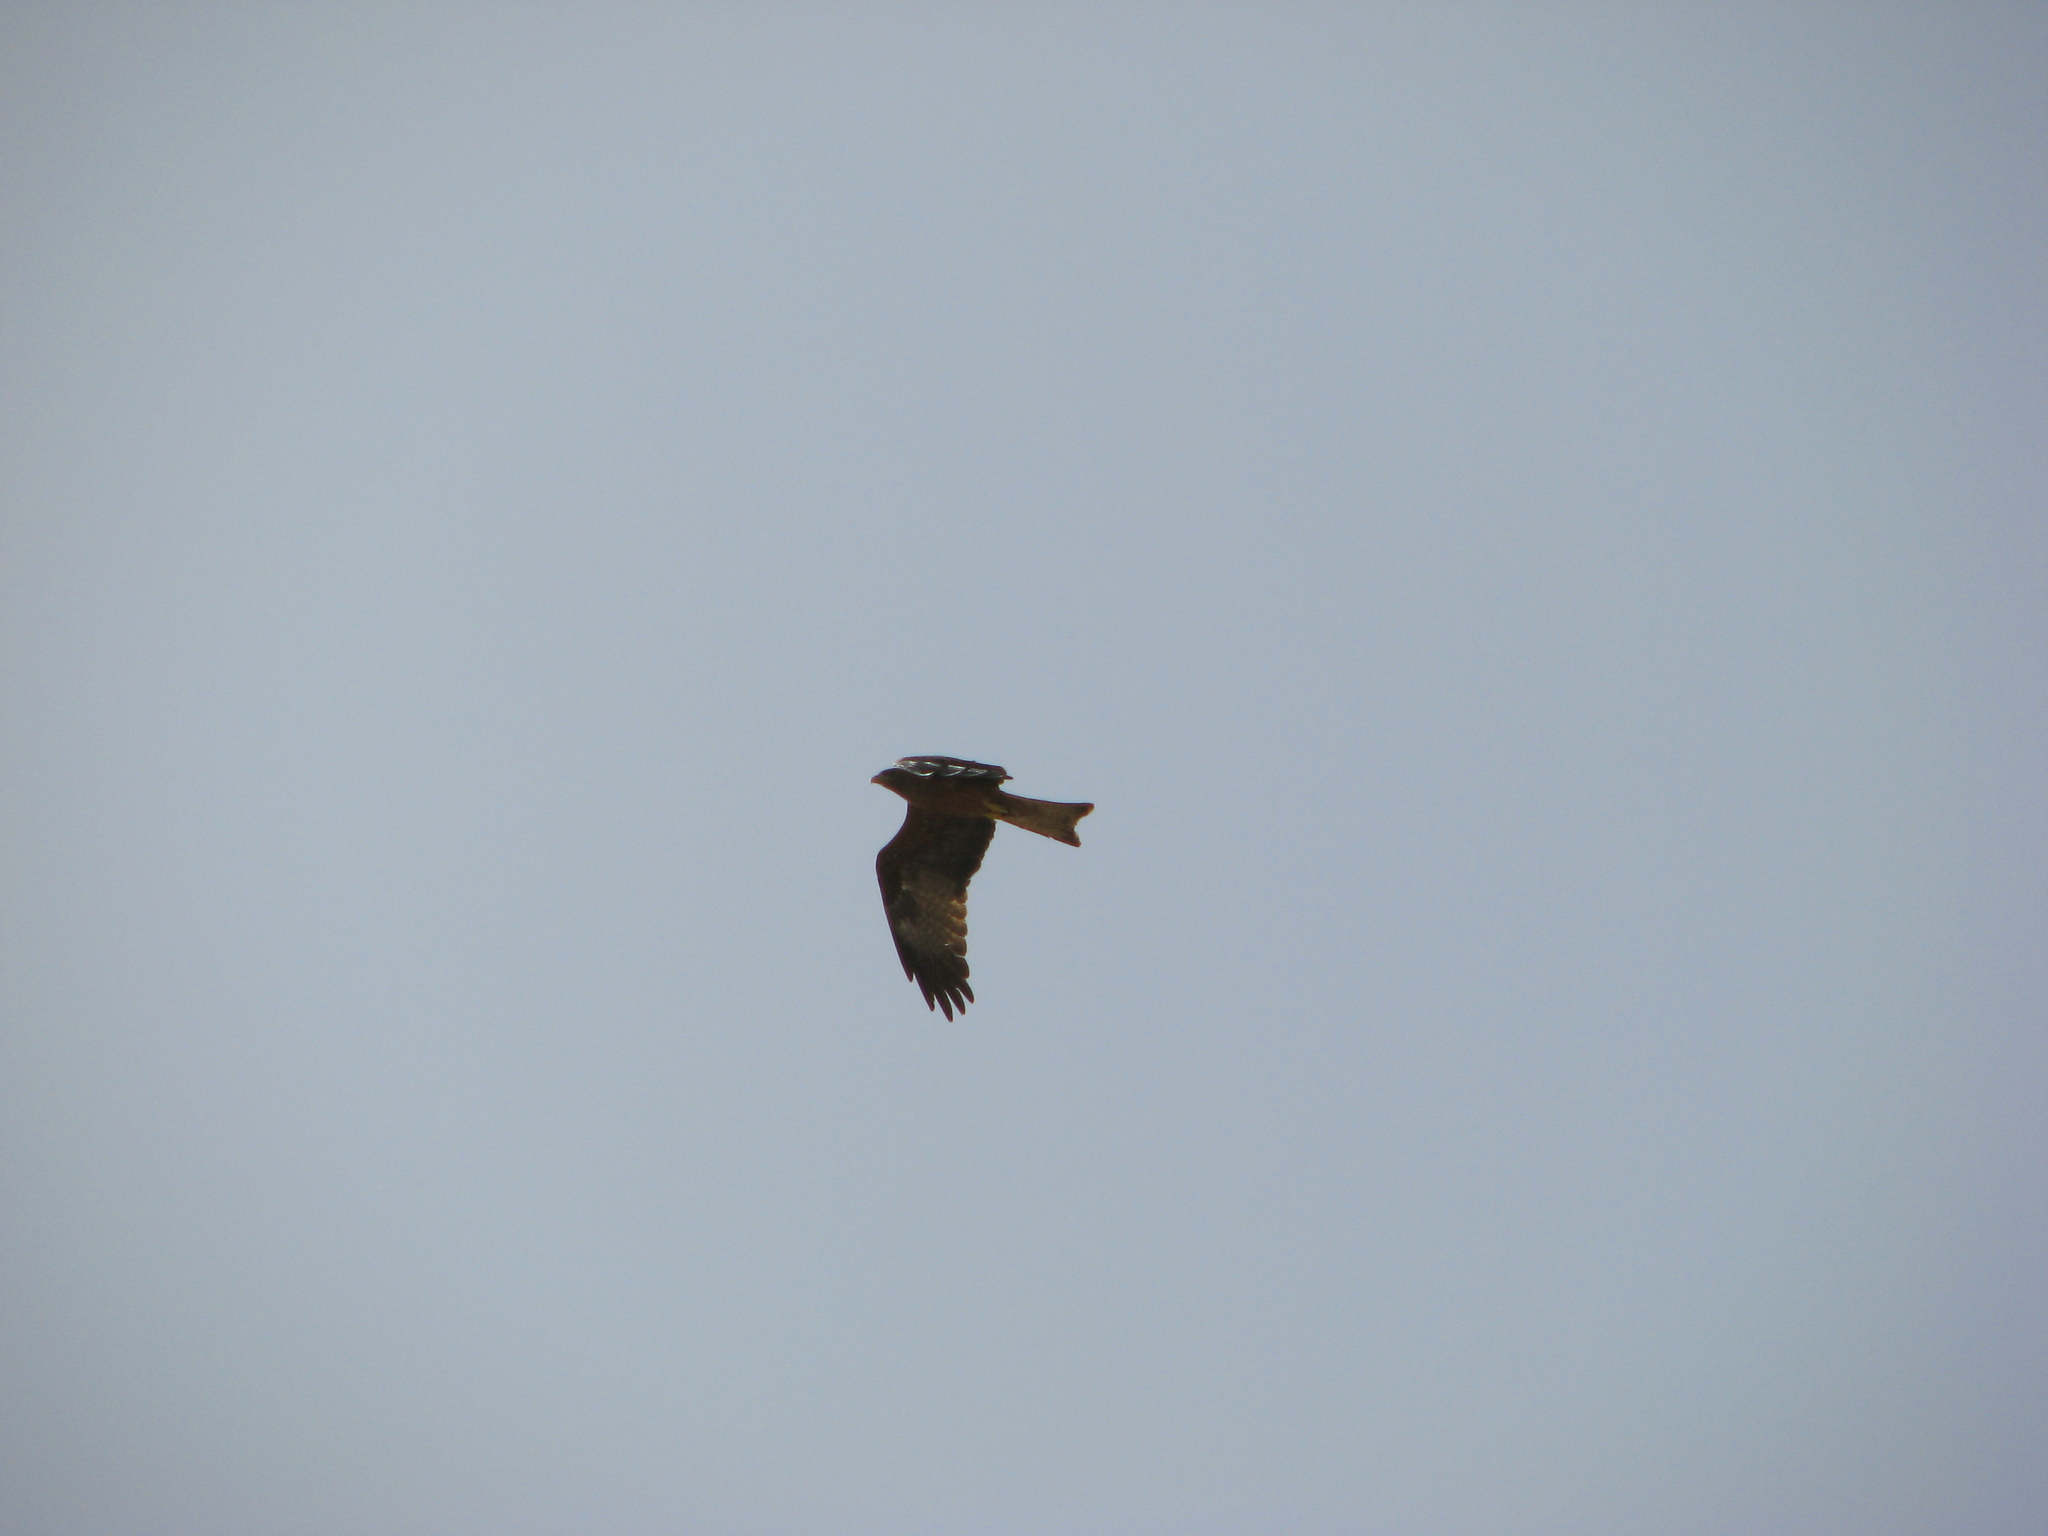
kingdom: Animalia
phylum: Chordata
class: Aves
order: Accipitriformes
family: Accipitridae
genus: Milvus
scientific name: Milvus migrans
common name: Black kite
